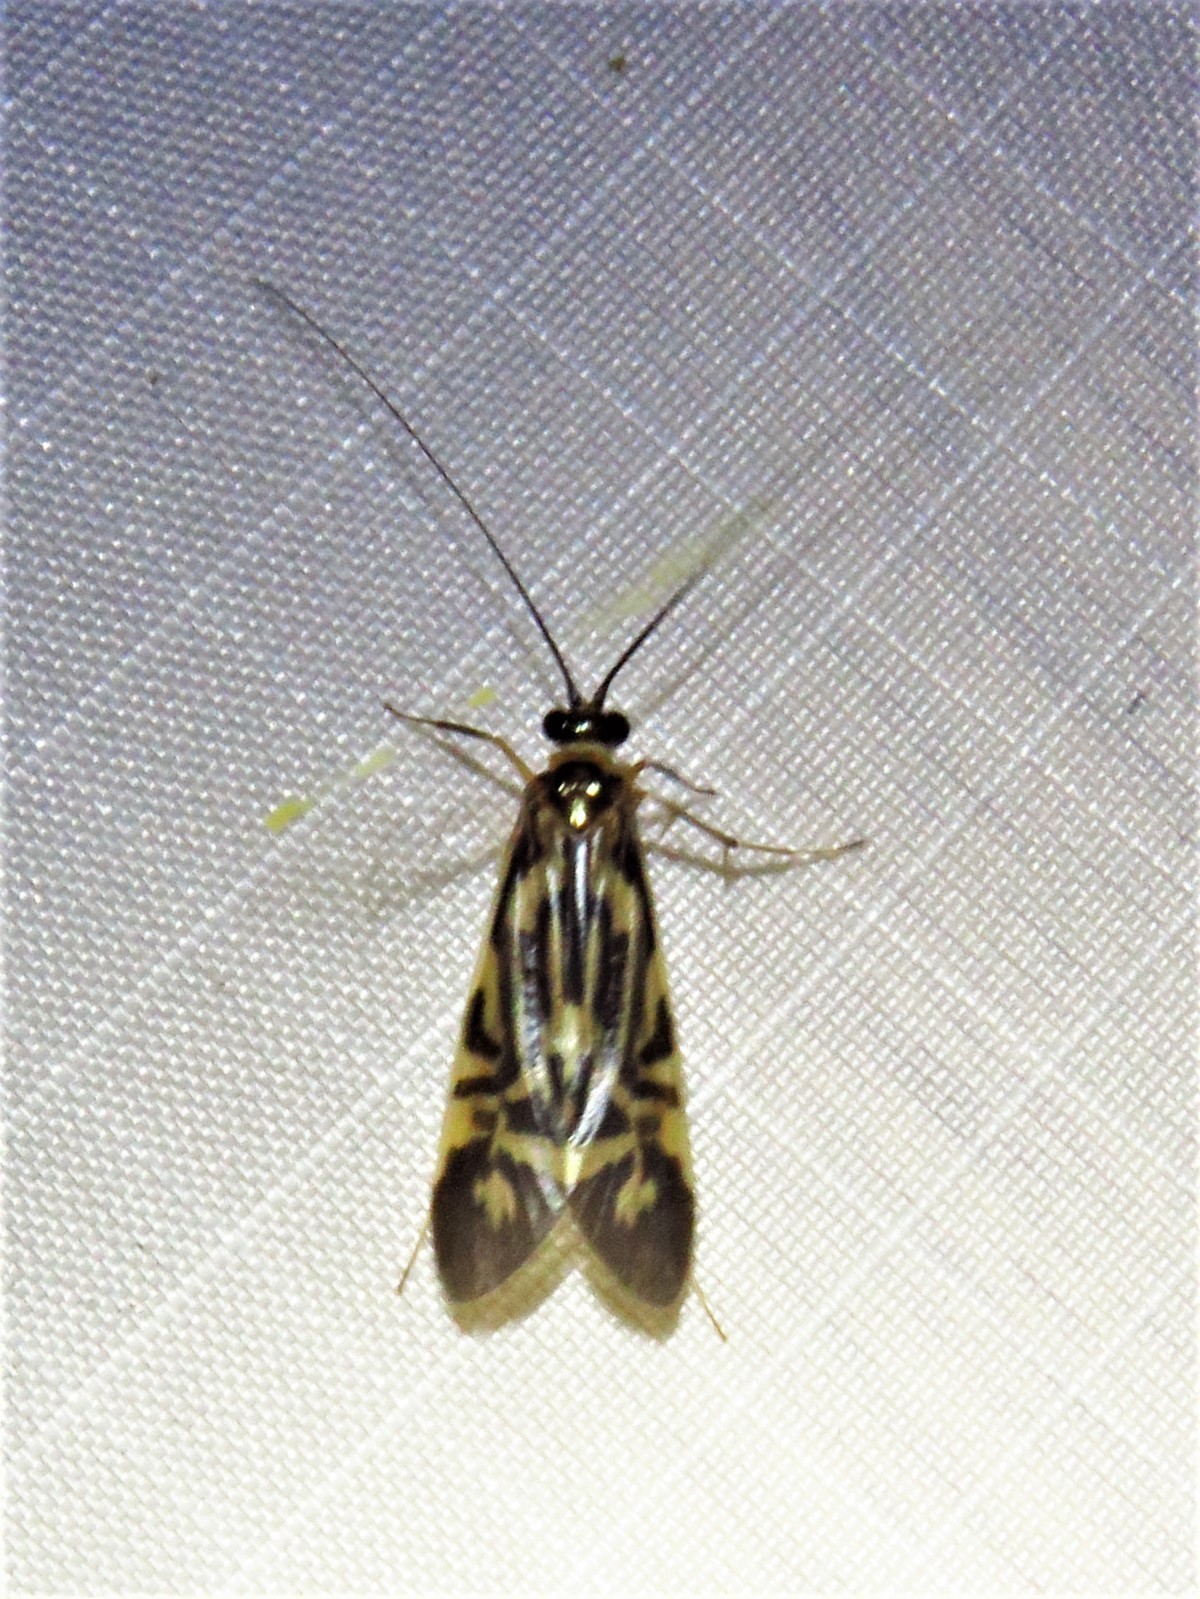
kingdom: Animalia
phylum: Arthropoda
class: Insecta
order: Trichoptera
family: Hydropsychidae
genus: Macrostemum
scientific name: Macrostemum carolina
